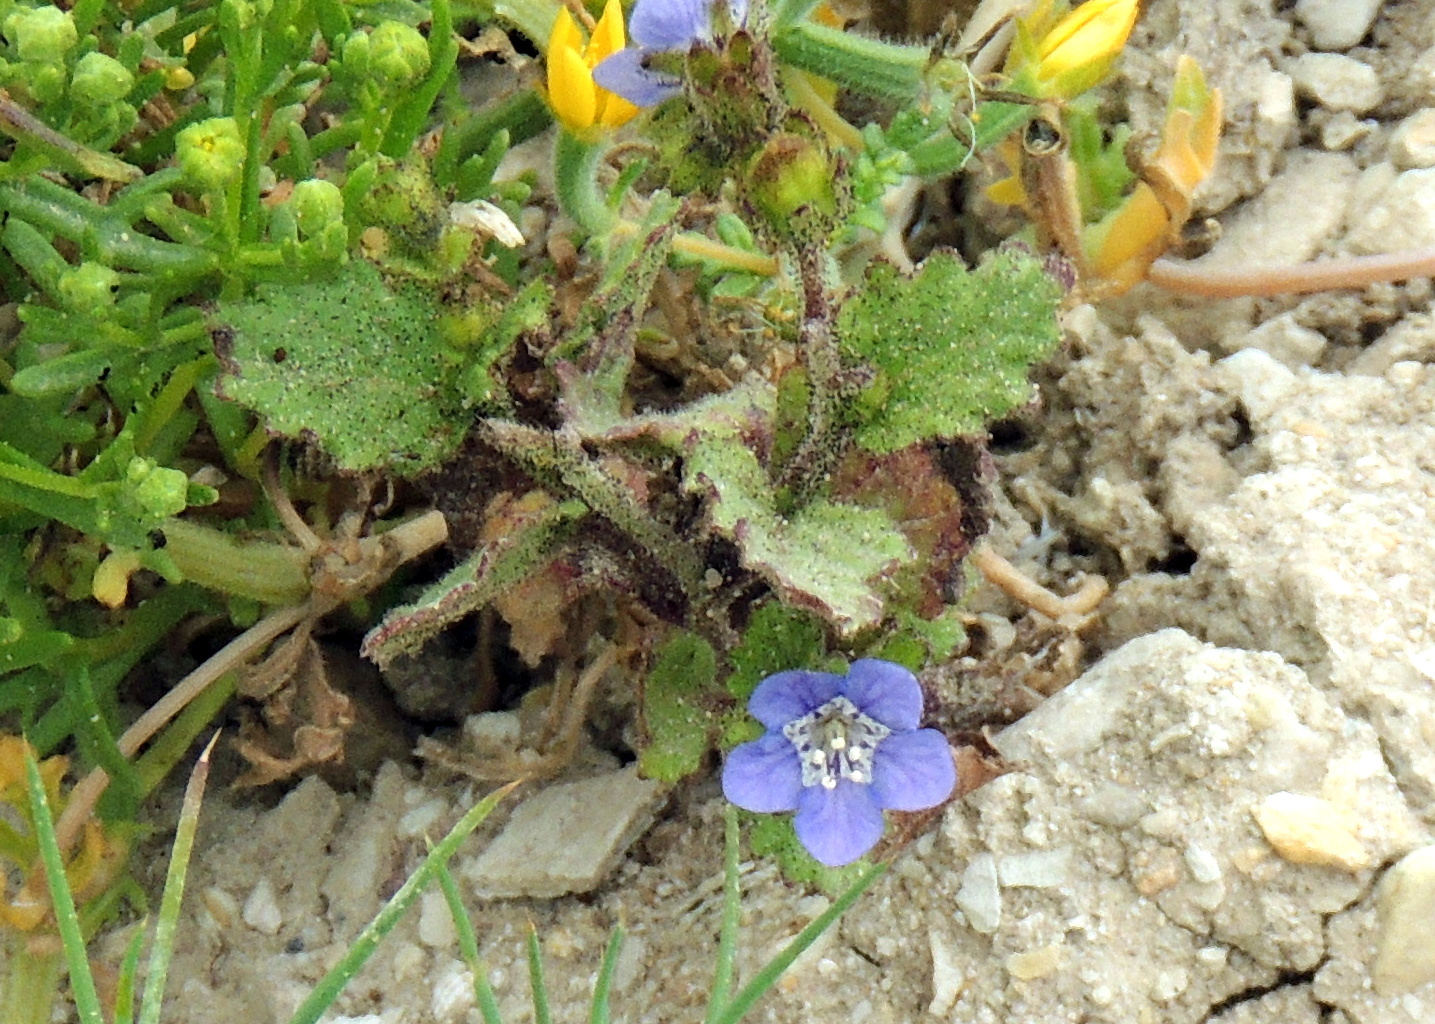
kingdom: Plantae
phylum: Tracheophyta
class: Magnoliopsida
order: Boraginales
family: Hydrophyllaceae
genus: Phacelia
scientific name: Phacelia viscida
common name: Sticky phacelia
